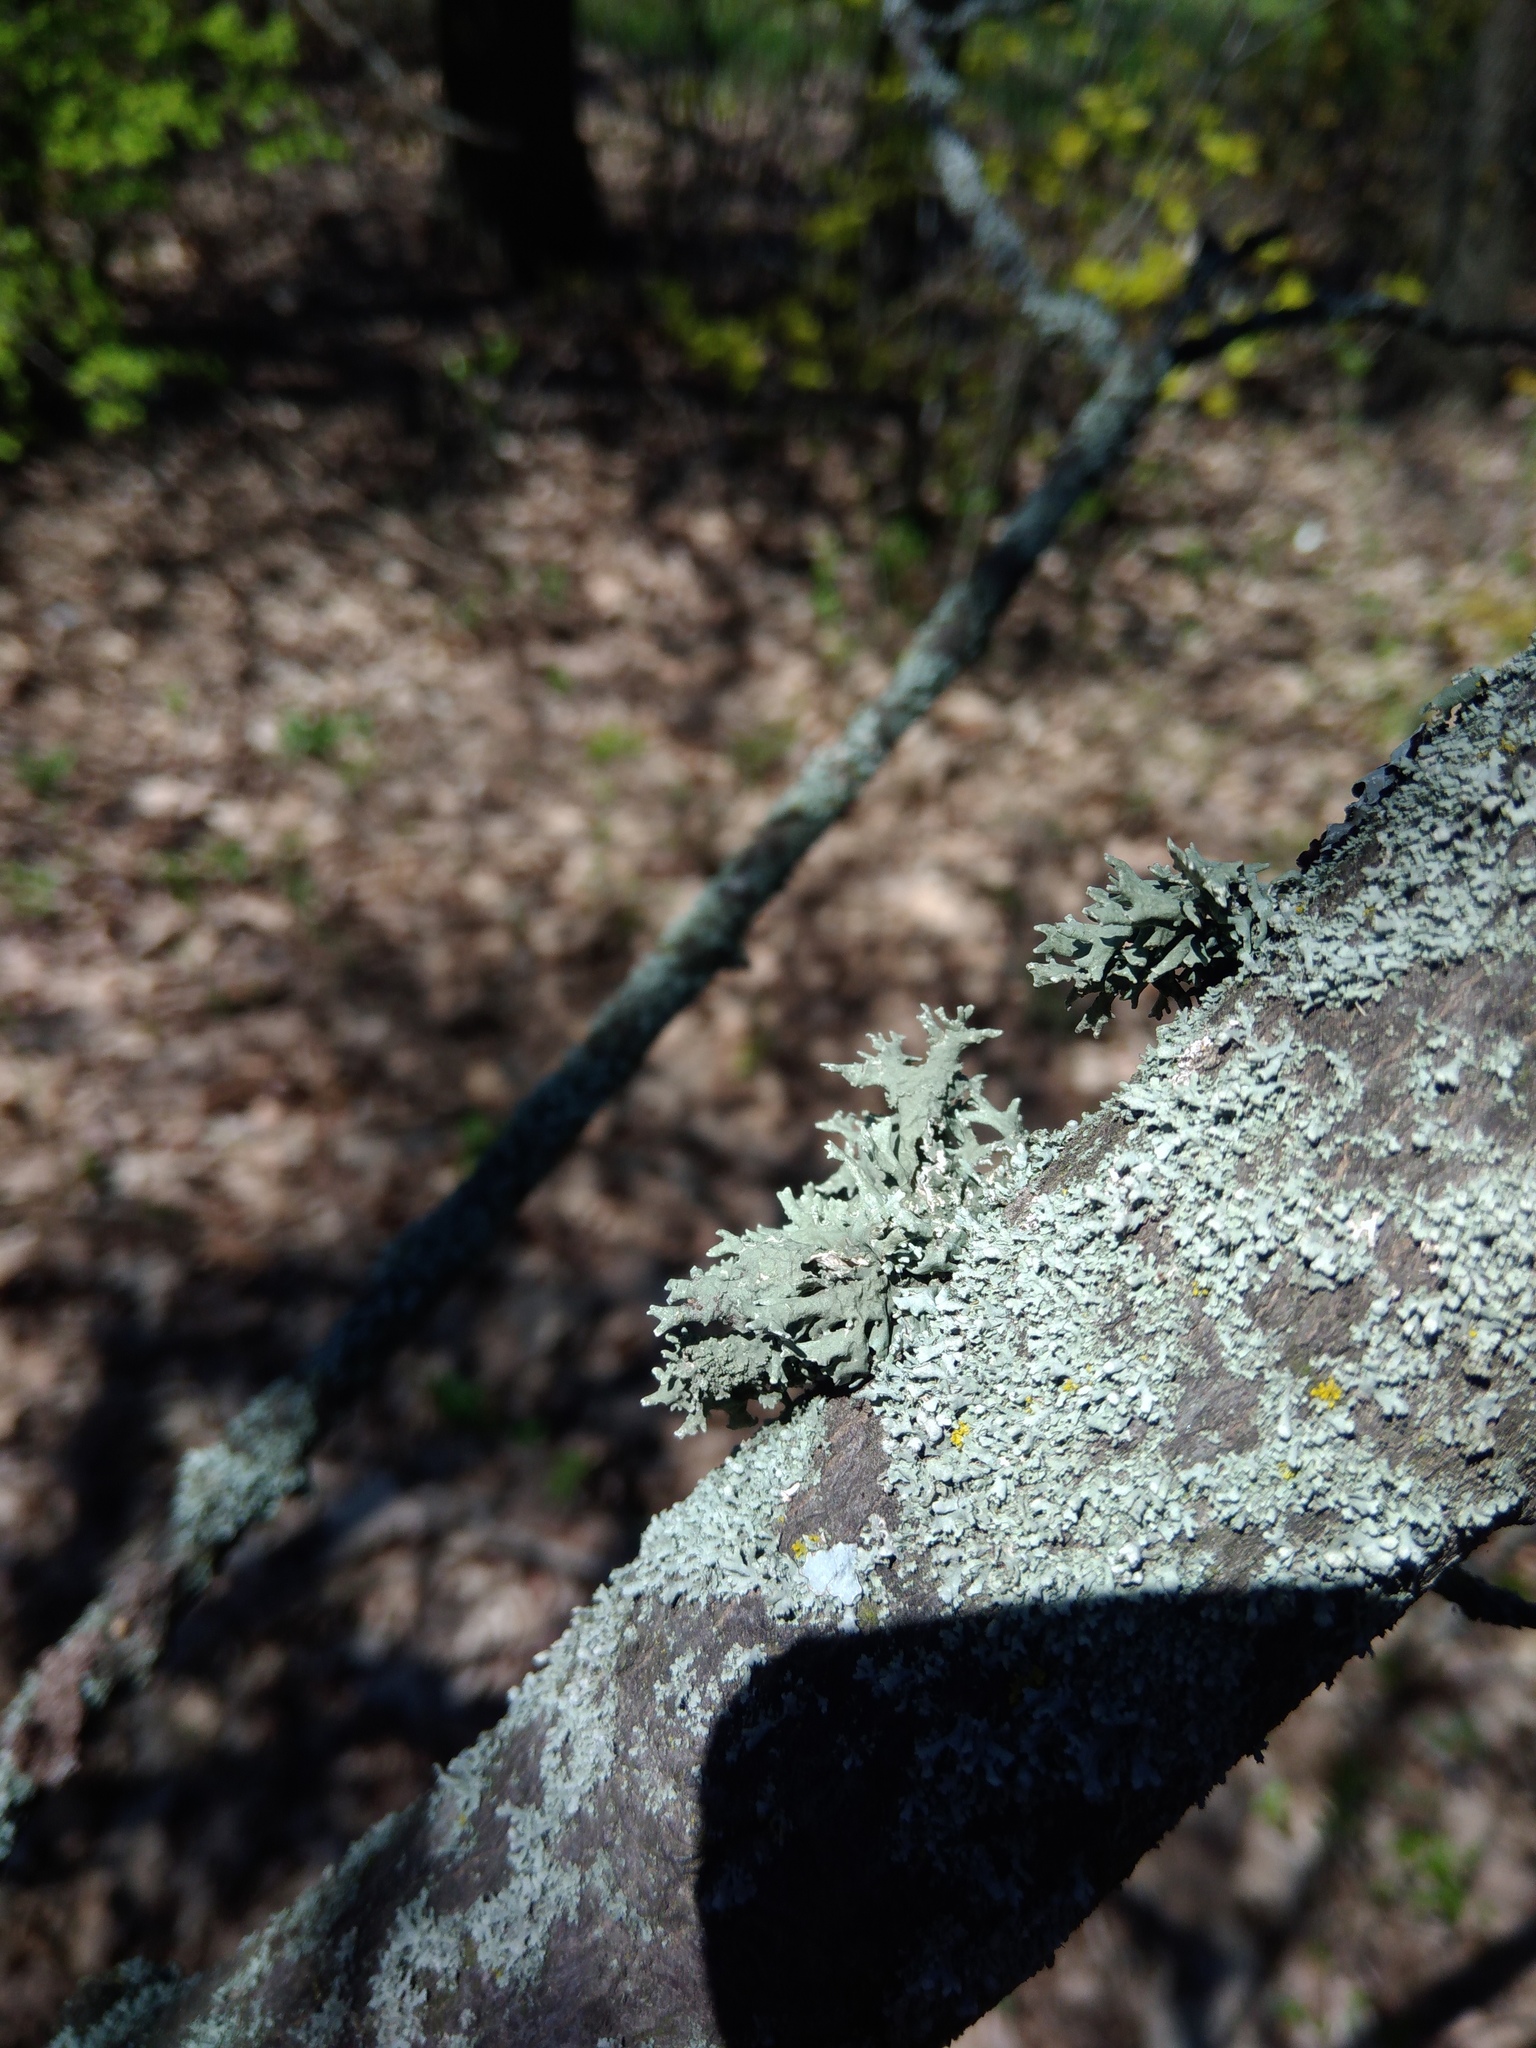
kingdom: Fungi
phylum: Ascomycota
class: Lecanoromycetes
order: Lecanorales
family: Parmeliaceae
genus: Evernia
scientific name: Evernia prunastri
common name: Oak moss
